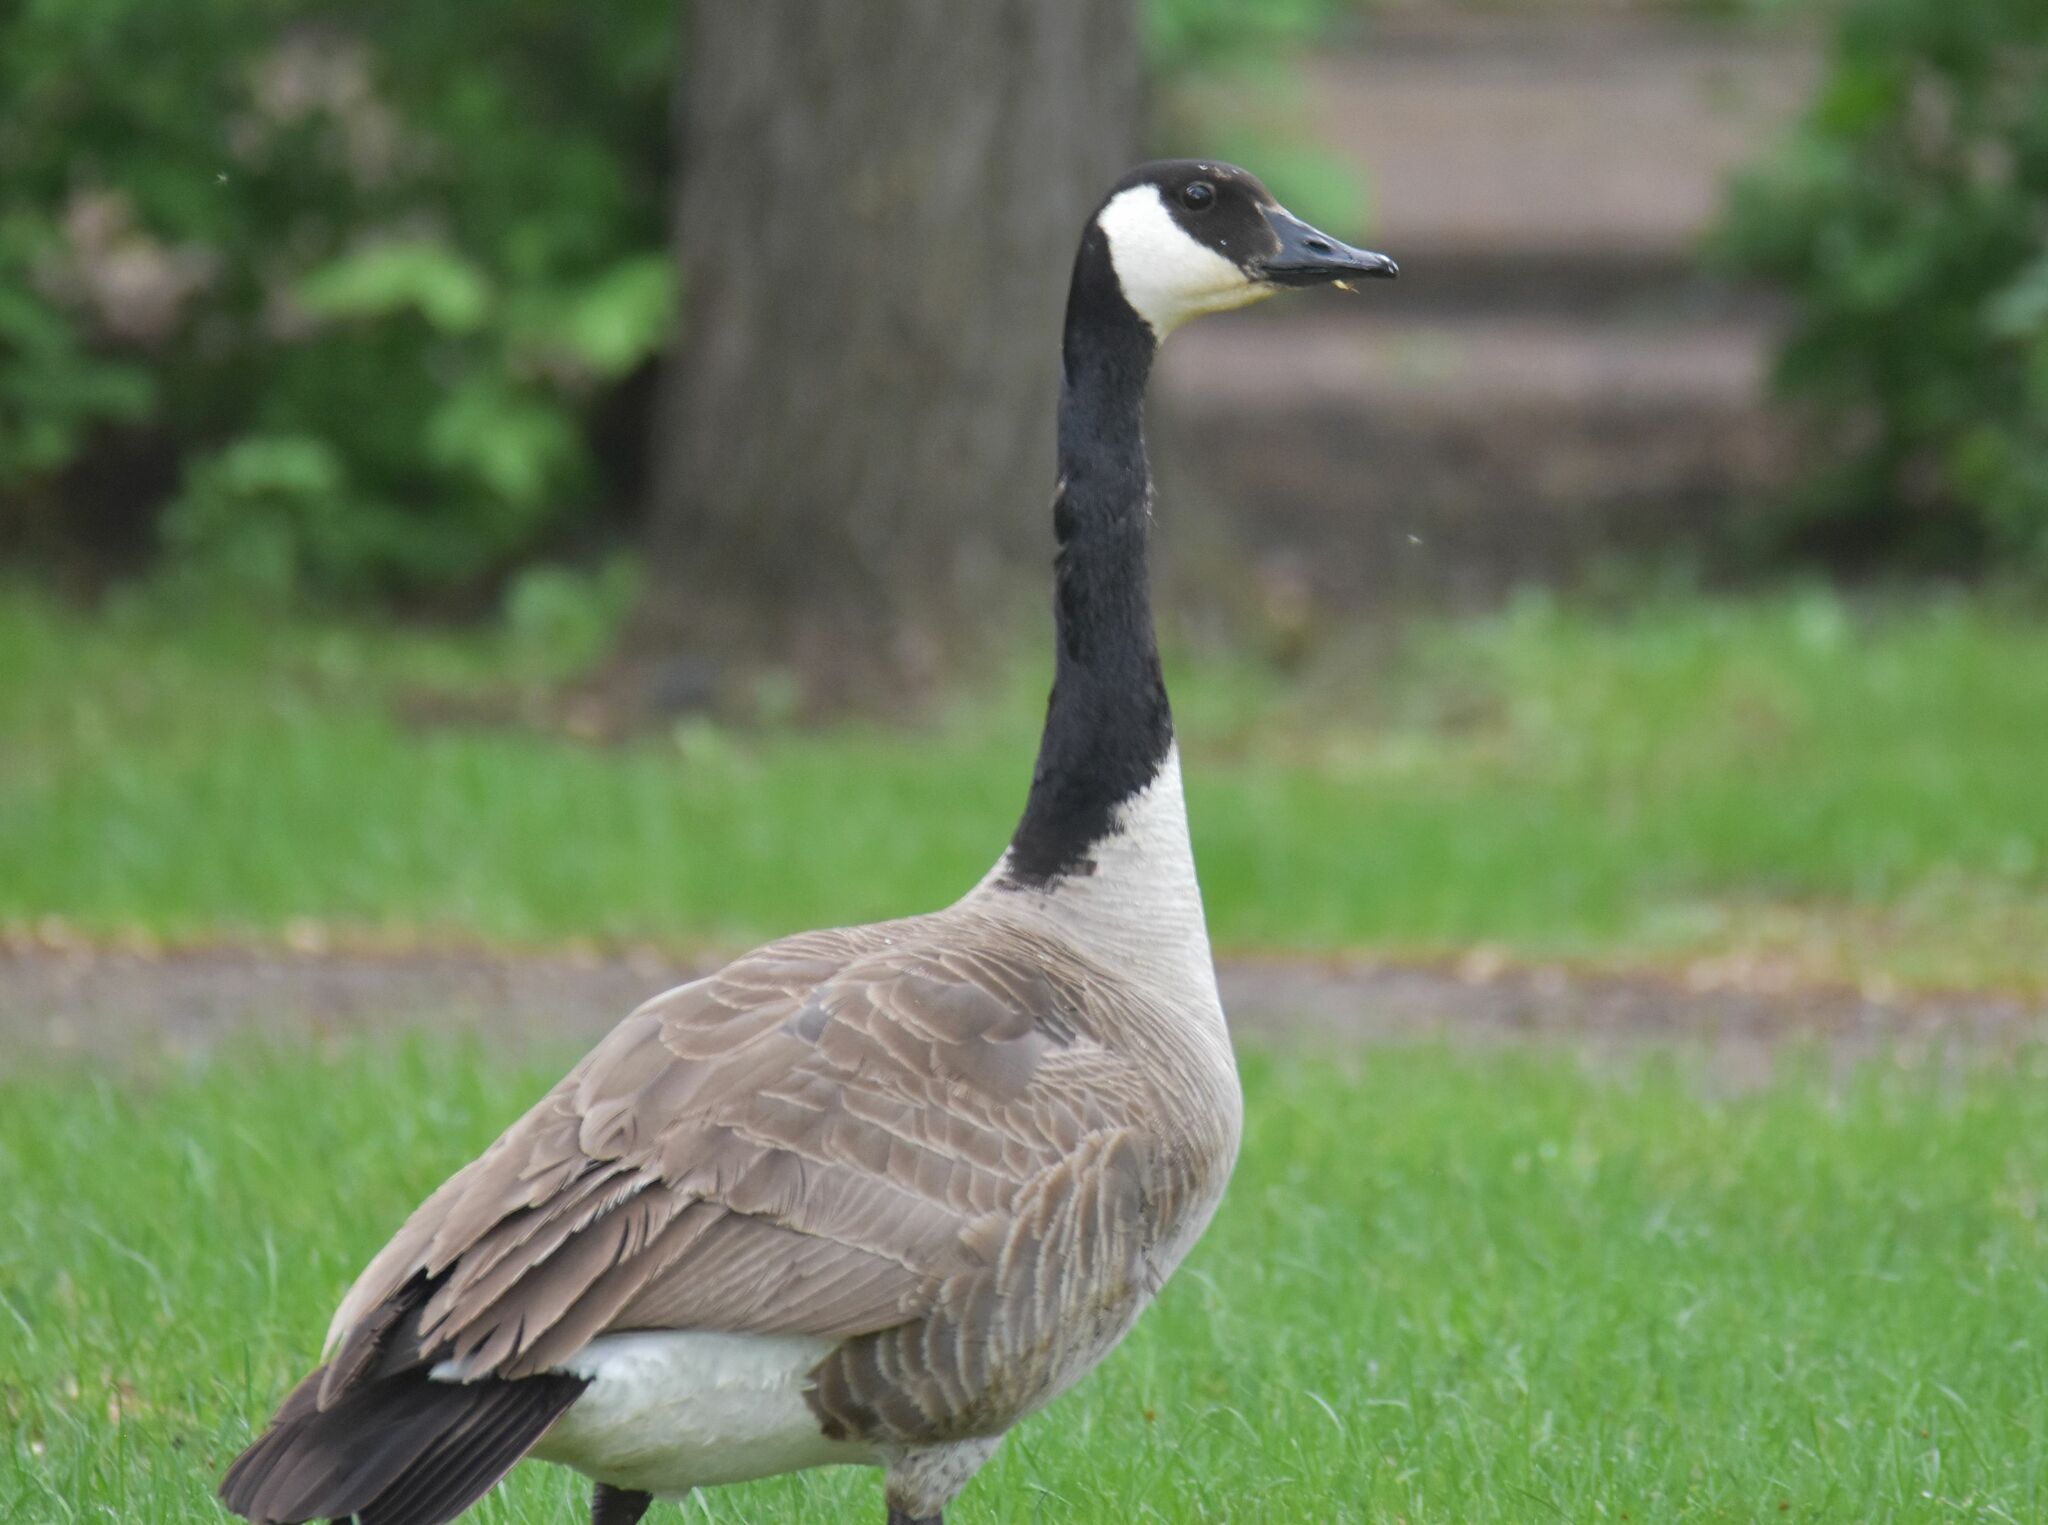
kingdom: Animalia
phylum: Chordata
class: Aves
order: Anseriformes
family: Anatidae
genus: Branta
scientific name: Branta canadensis
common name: Canada goose
